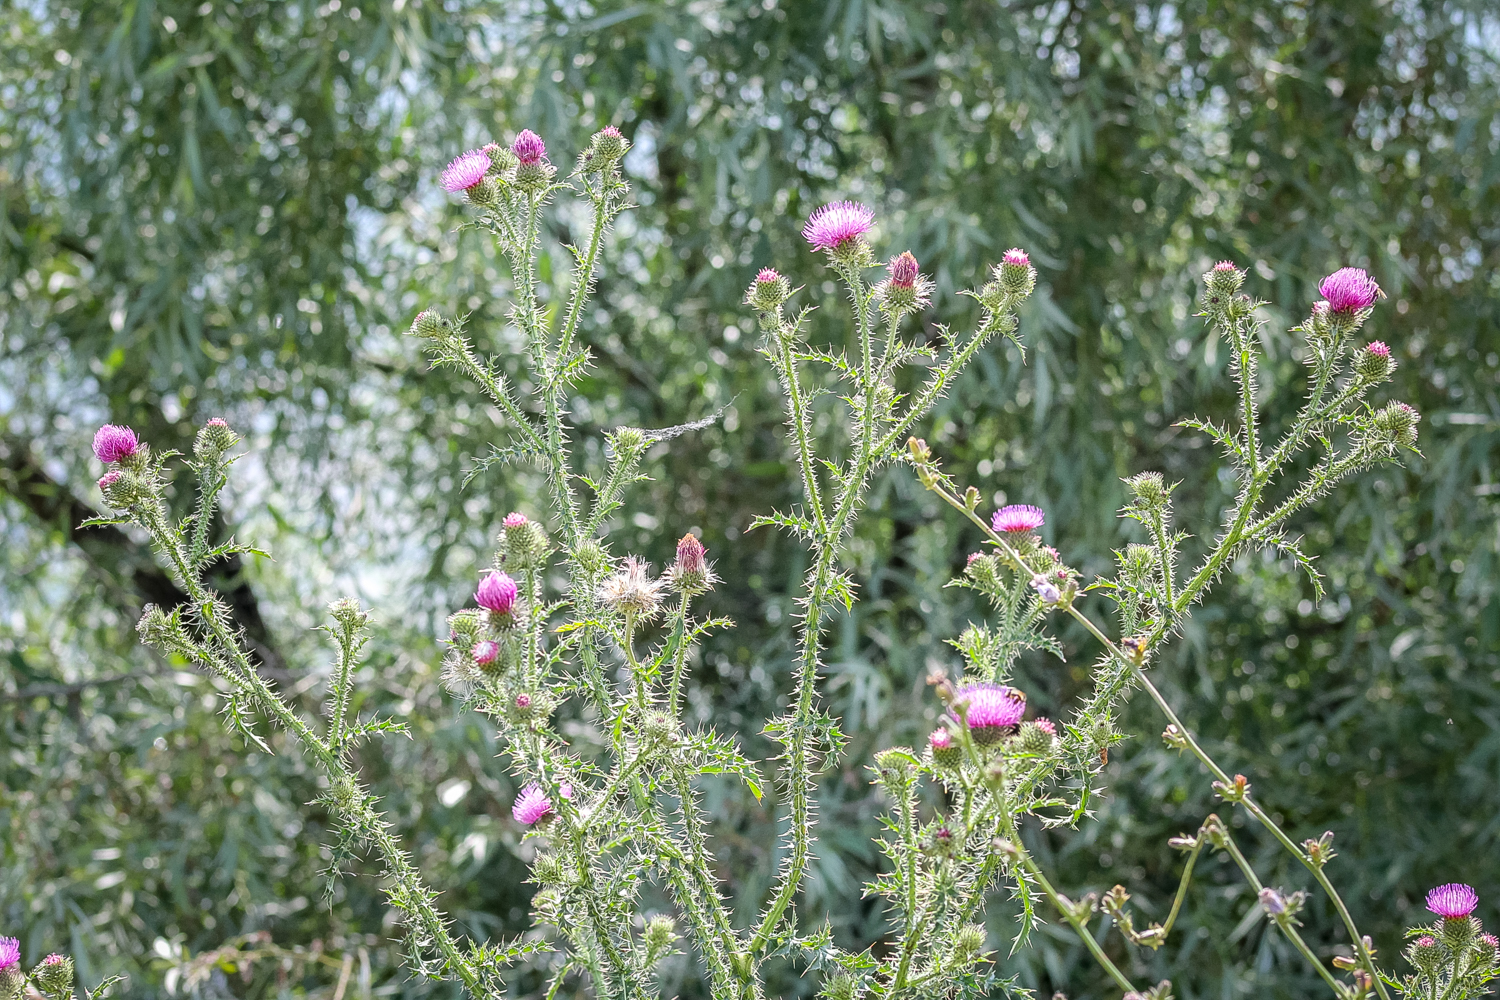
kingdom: Plantae
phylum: Tracheophyta
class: Magnoliopsida
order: Asterales
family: Asteraceae
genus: Carduus
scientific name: Carduus acanthoides
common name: Plumeless thistle
